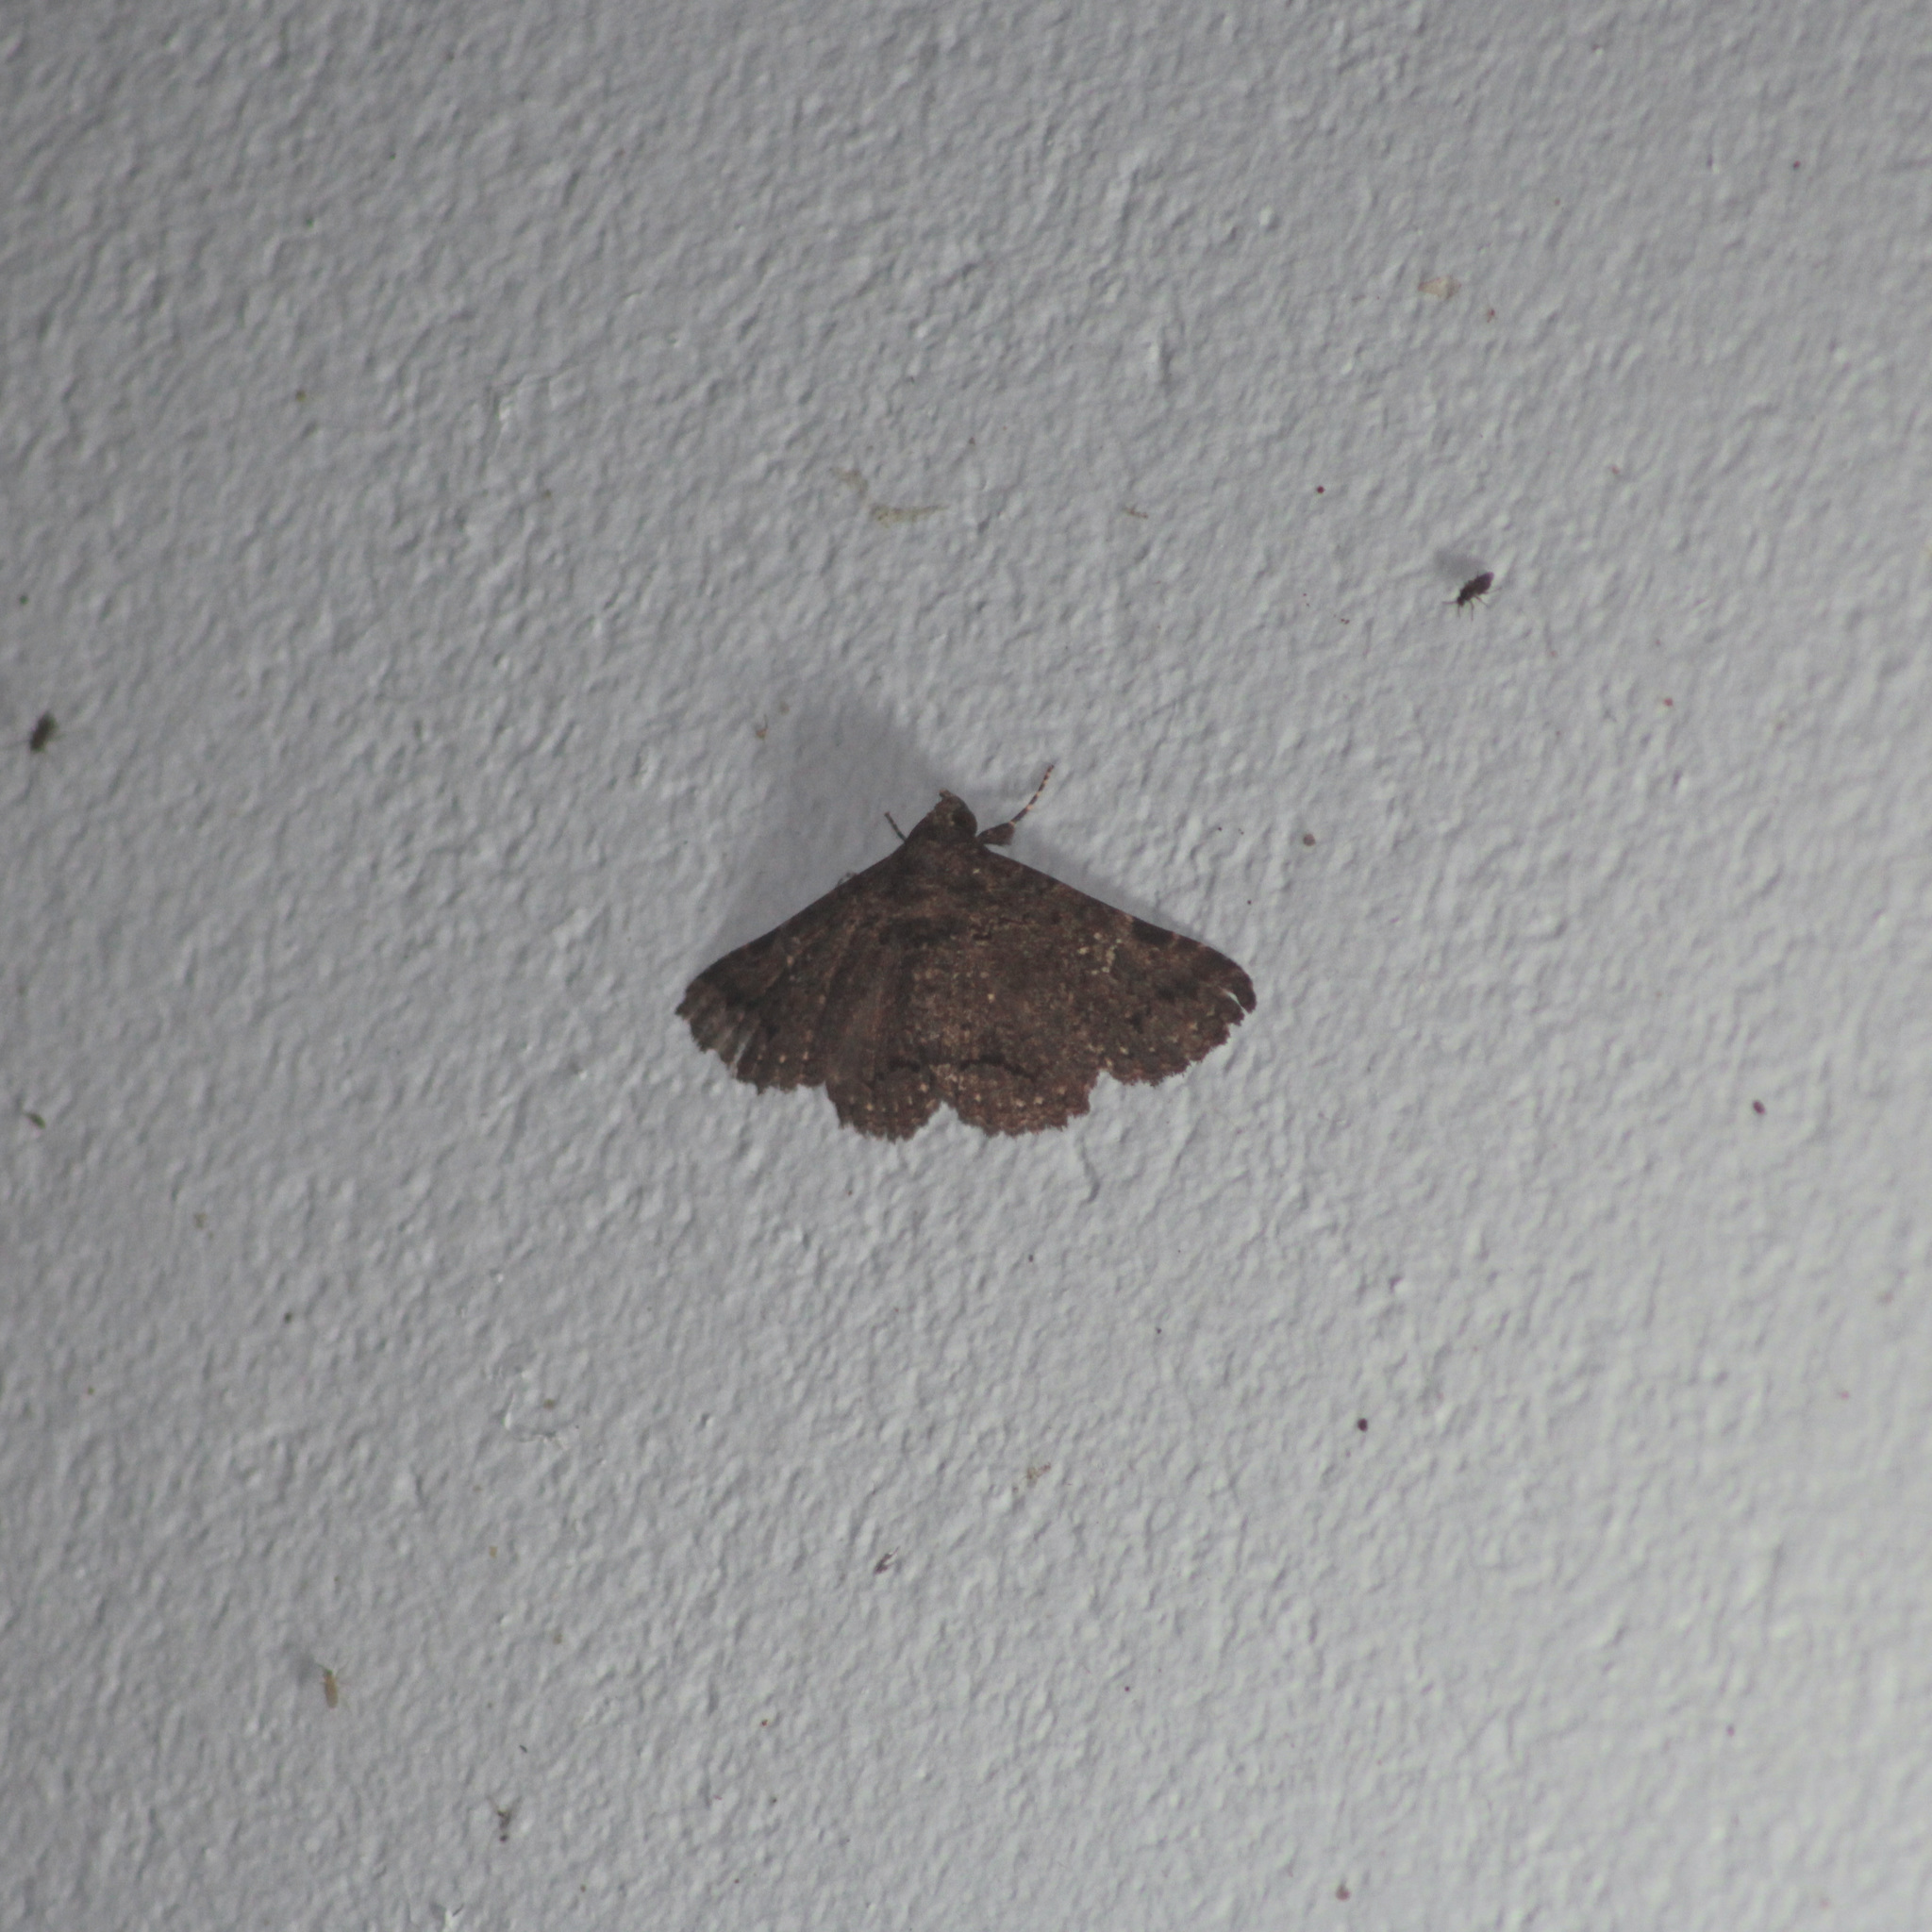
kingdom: Animalia
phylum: Arthropoda
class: Insecta
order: Lepidoptera
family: Erebidae
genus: Metria
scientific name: Metria
